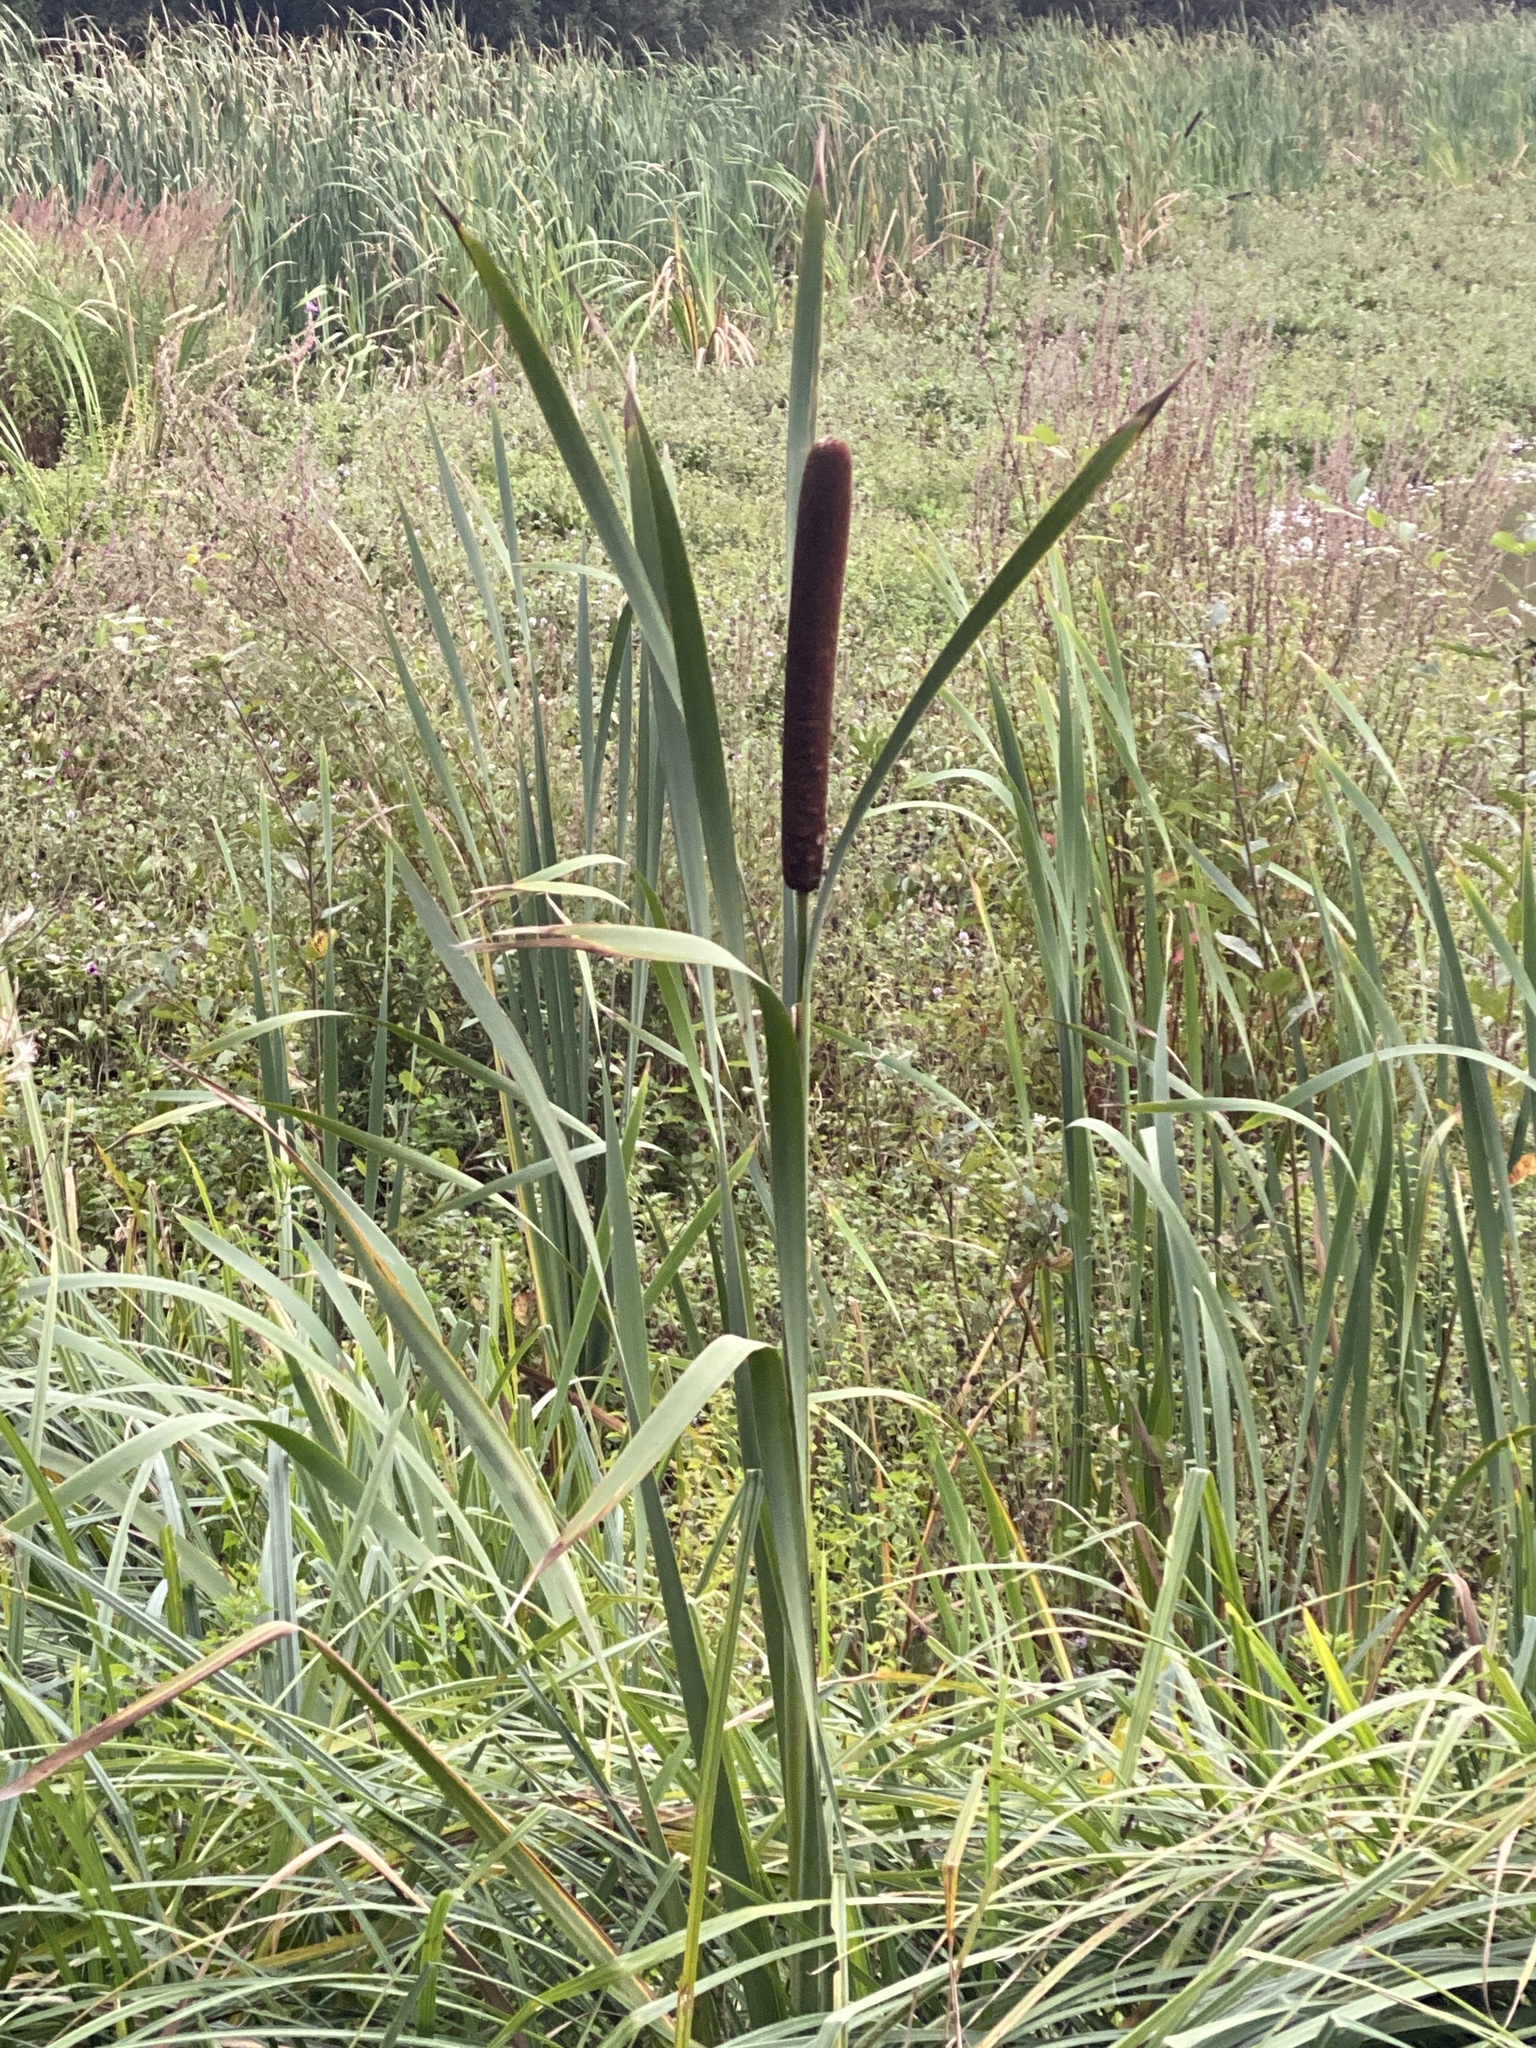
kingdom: Plantae
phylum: Tracheophyta
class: Liliopsida
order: Poales
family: Typhaceae
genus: Typha
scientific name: Typha latifolia
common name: Broadleaf cattail
